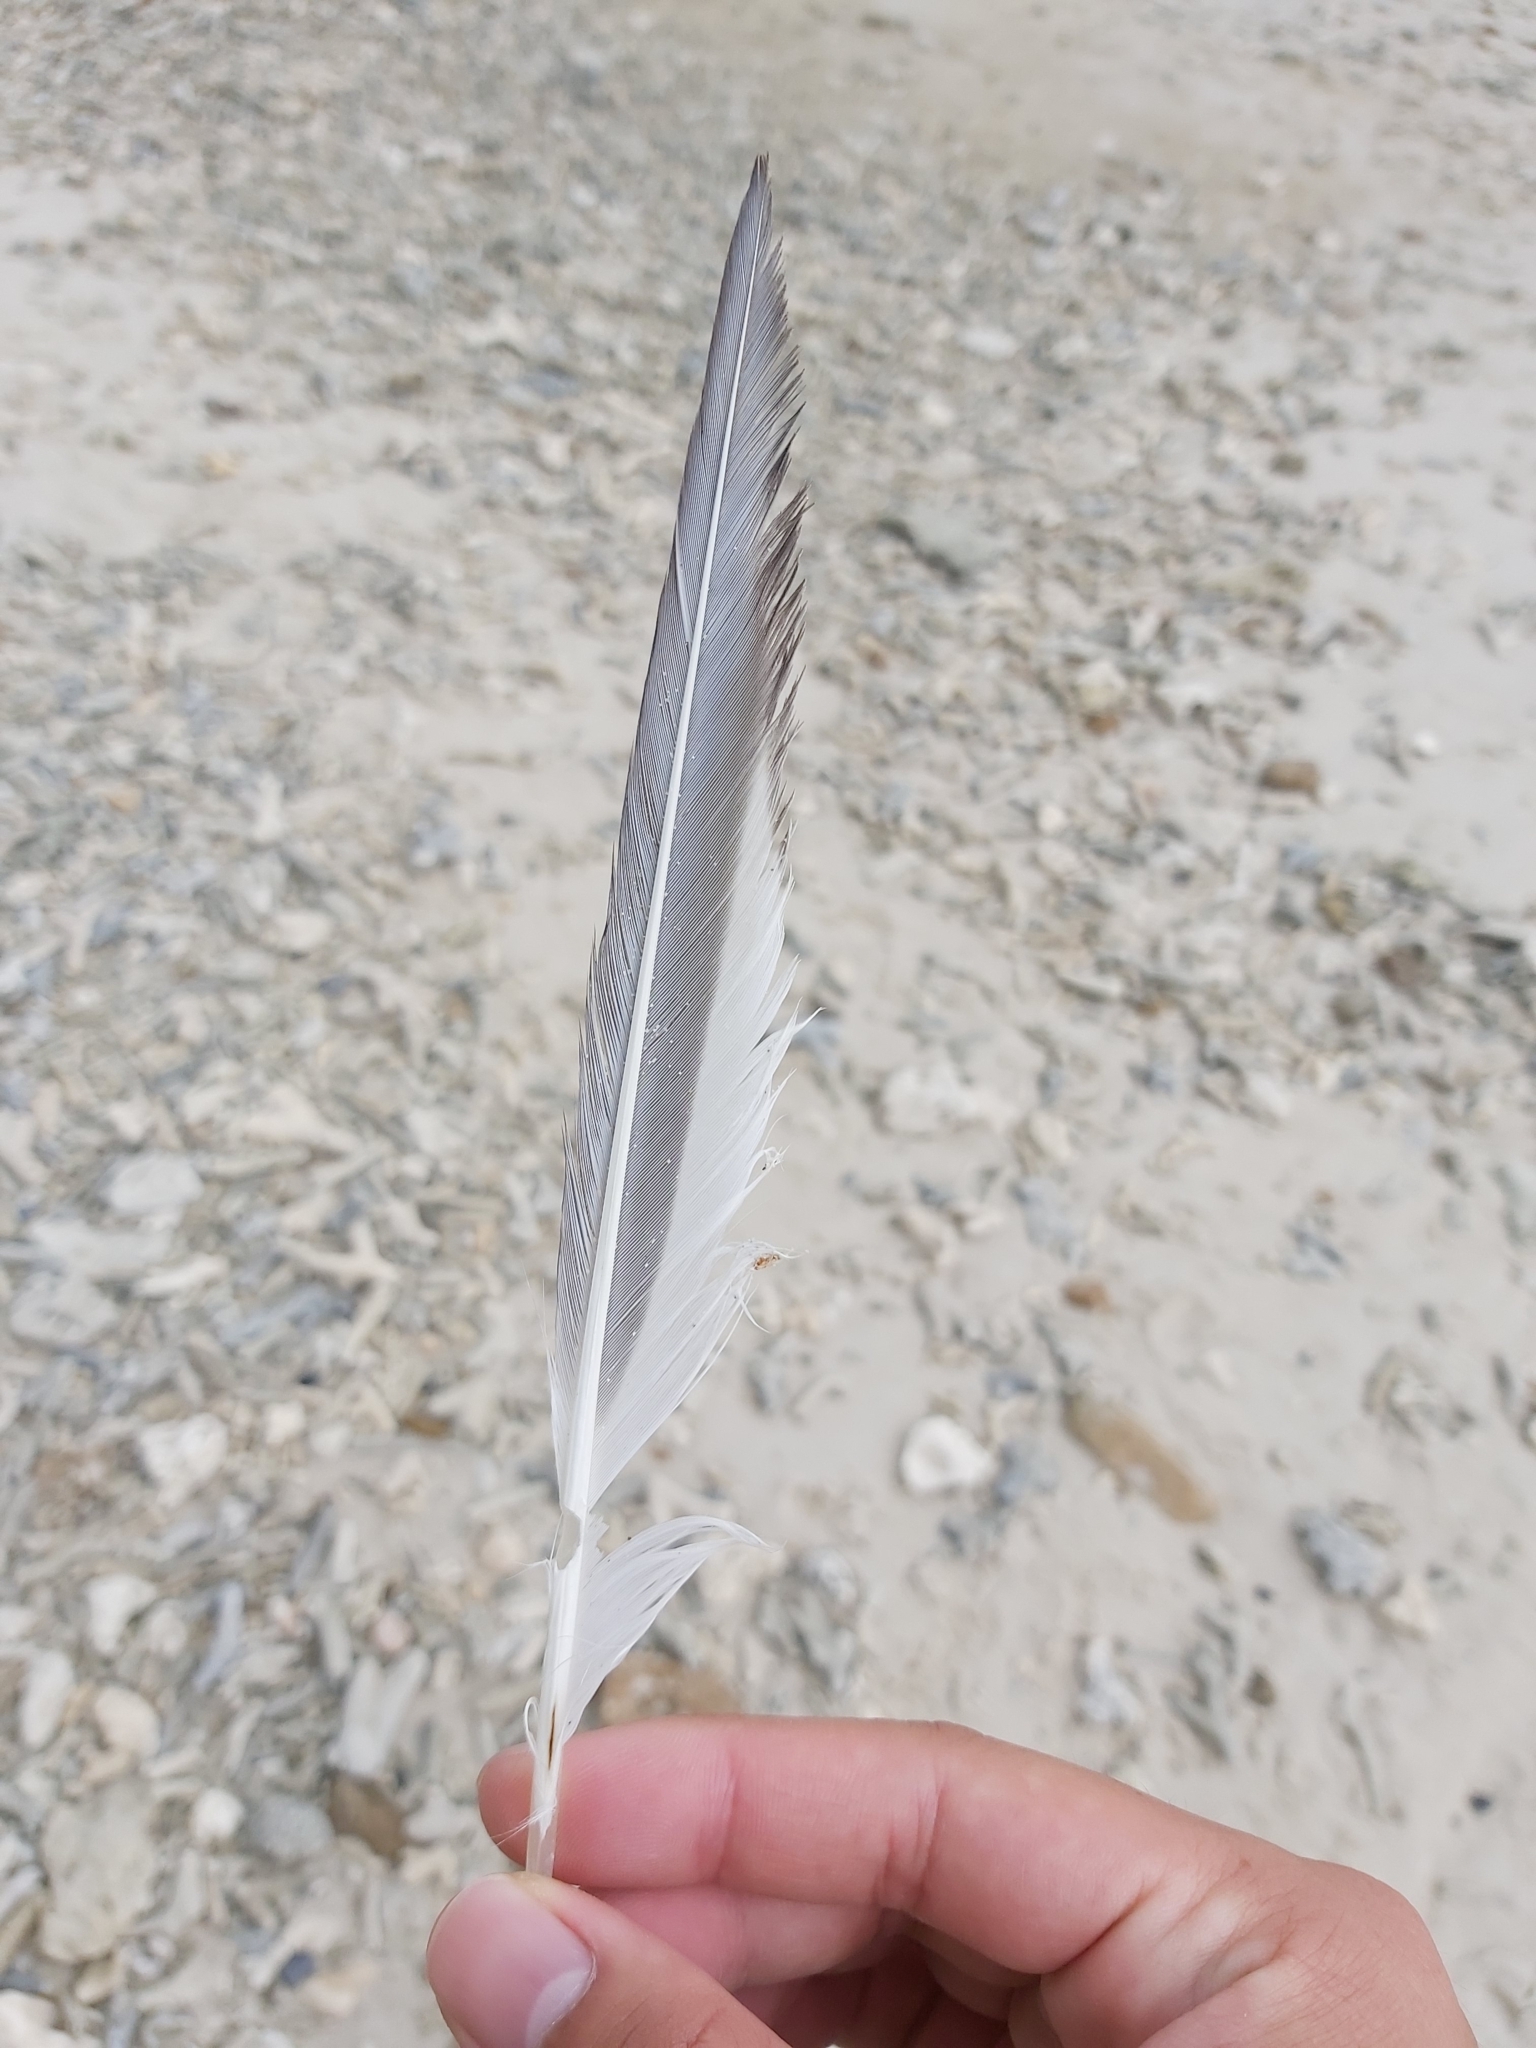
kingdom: Animalia
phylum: Chordata
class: Aves
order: Charadriiformes
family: Laridae
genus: Thalasseus
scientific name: Thalasseus bergii
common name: Greater crested tern
